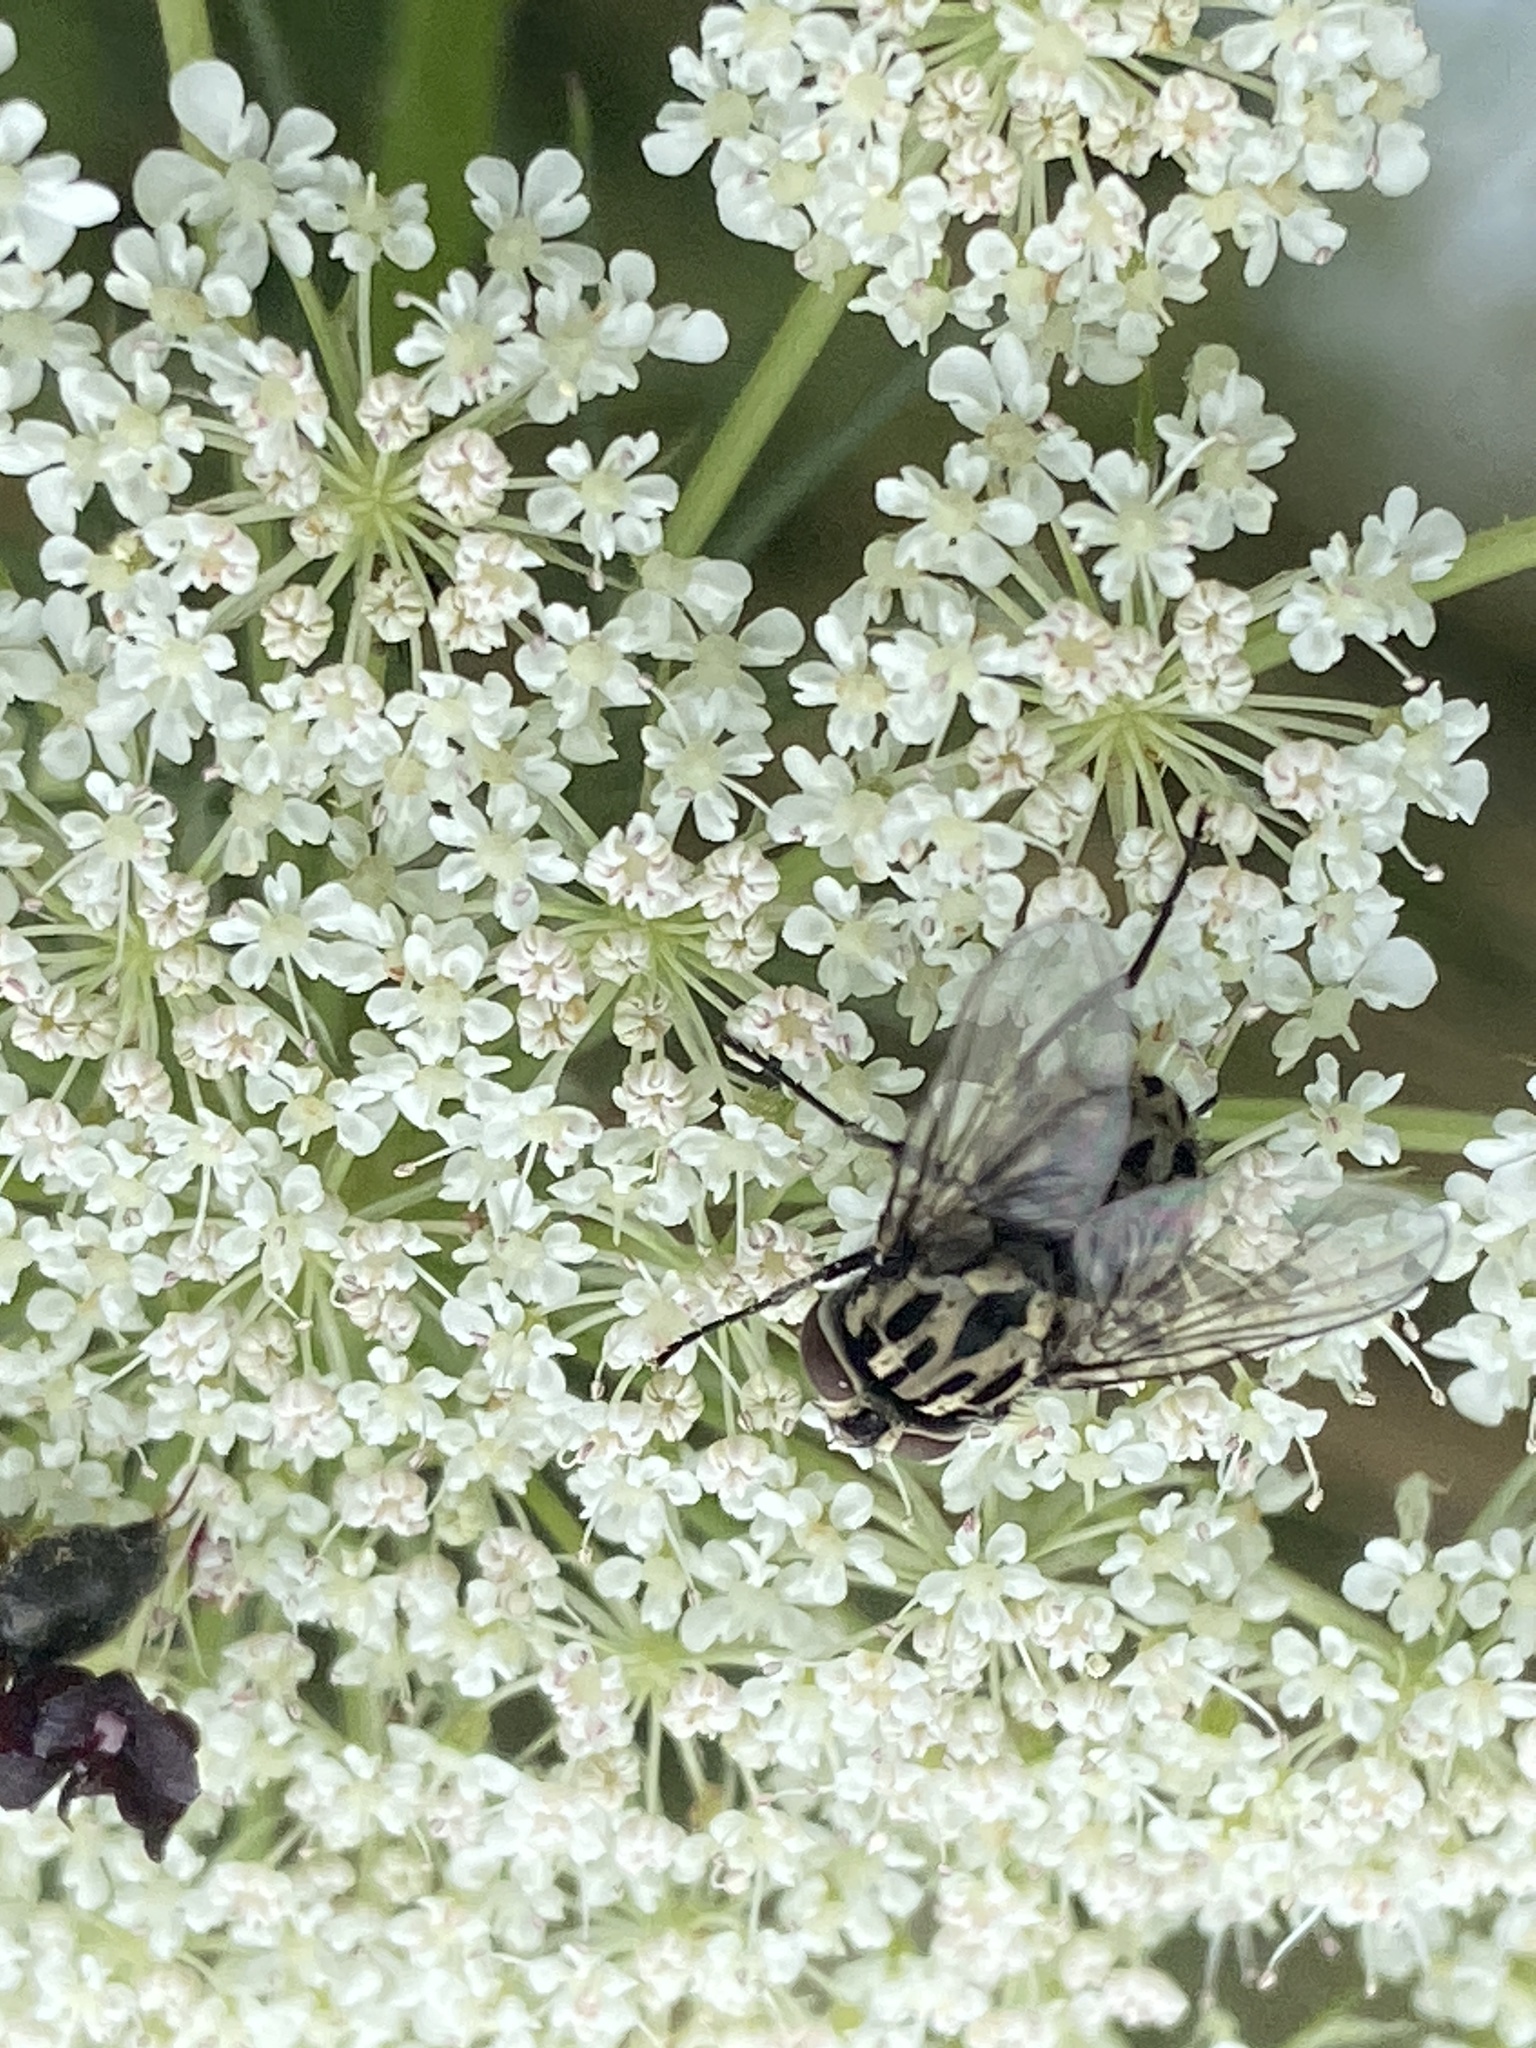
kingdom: Animalia
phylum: Arthropoda
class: Insecta
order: Diptera
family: Muscidae
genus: Graphomya
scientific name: Graphomya maculata
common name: Muscid fly
